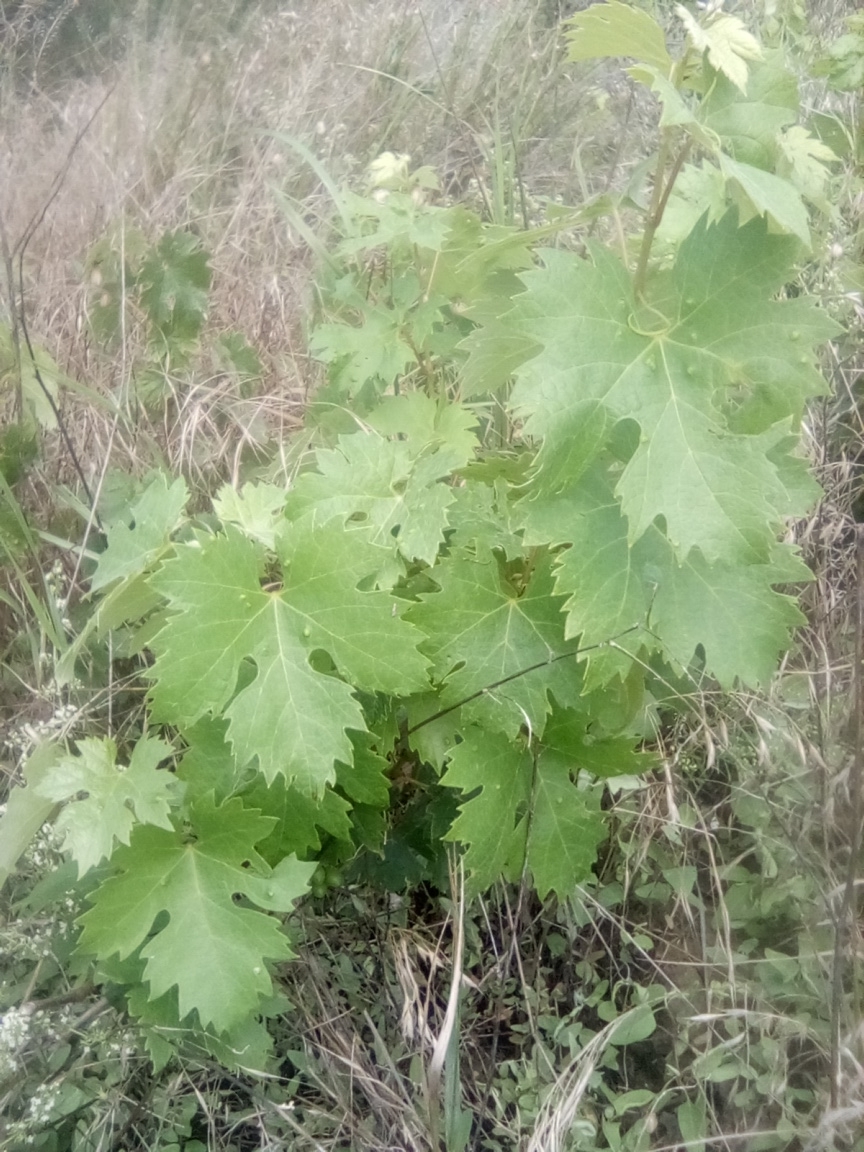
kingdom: Plantae
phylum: Tracheophyta
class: Magnoliopsida
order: Vitales
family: Vitaceae
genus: Vitis
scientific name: Vitis vinifera
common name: Grape-vine
